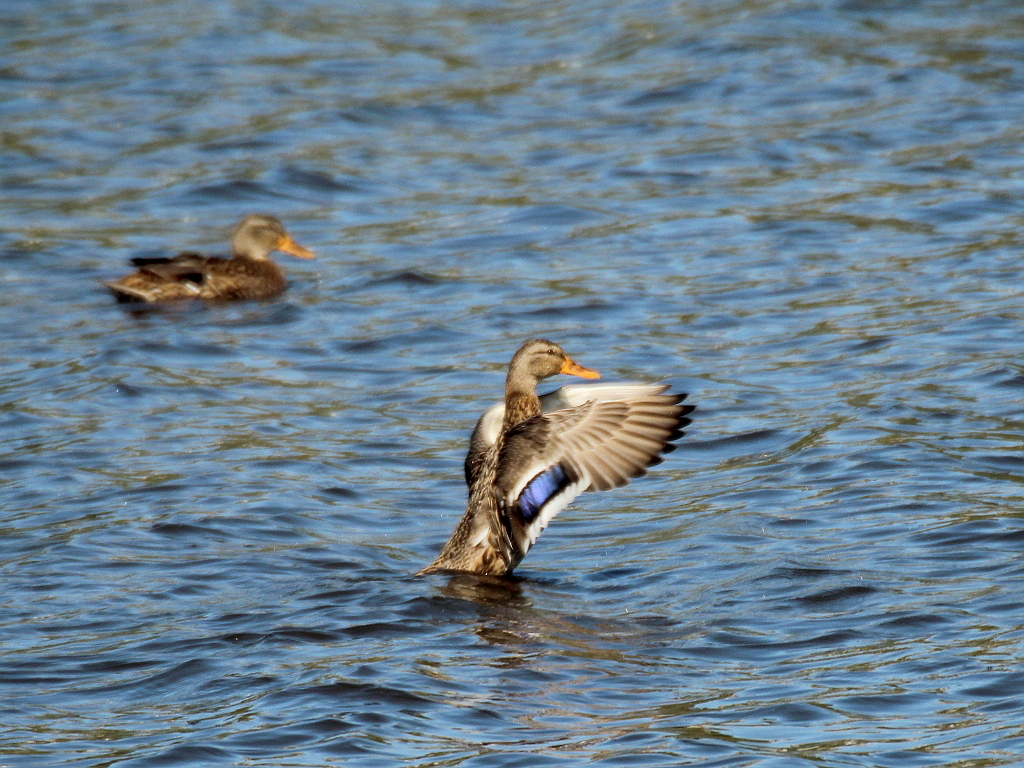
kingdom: Animalia
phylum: Chordata
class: Aves
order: Anseriformes
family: Anatidae
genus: Anas
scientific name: Anas platyrhynchos
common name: Mallard
